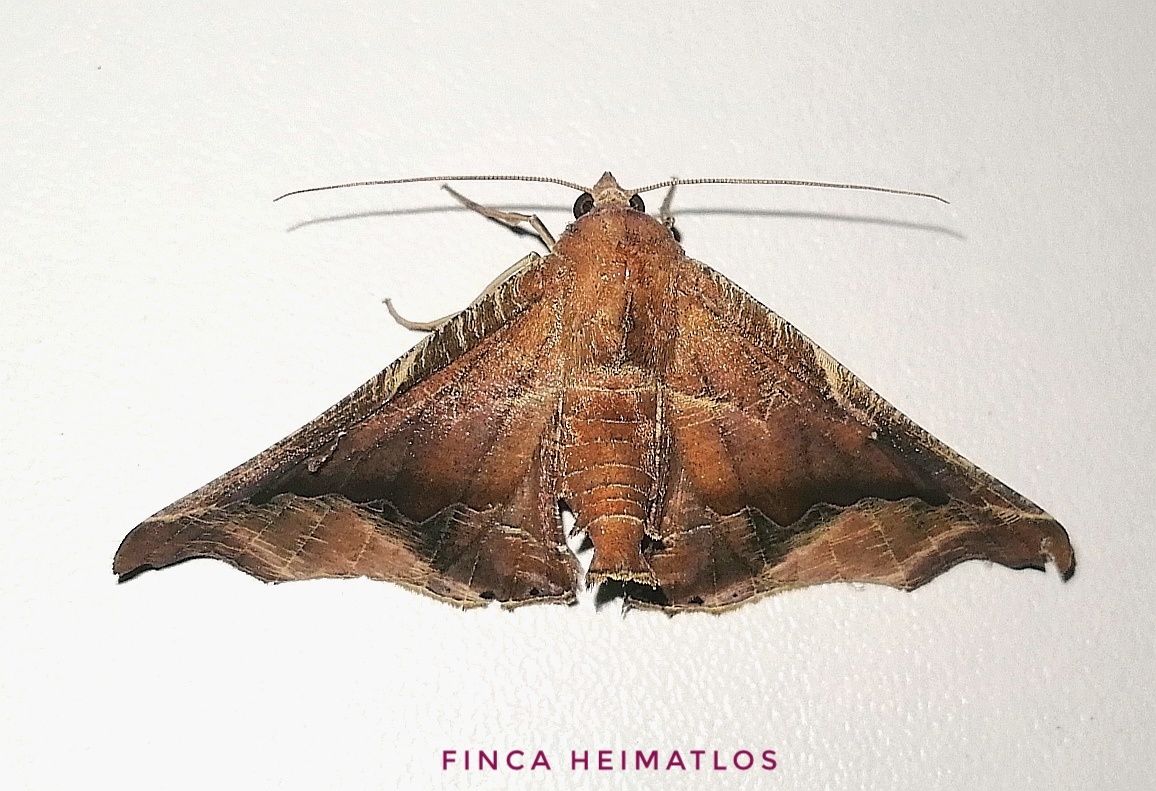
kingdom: Animalia
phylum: Arthropoda
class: Insecta
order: Lepidoptera
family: Geometridae
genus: Pero
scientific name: Pero boa
